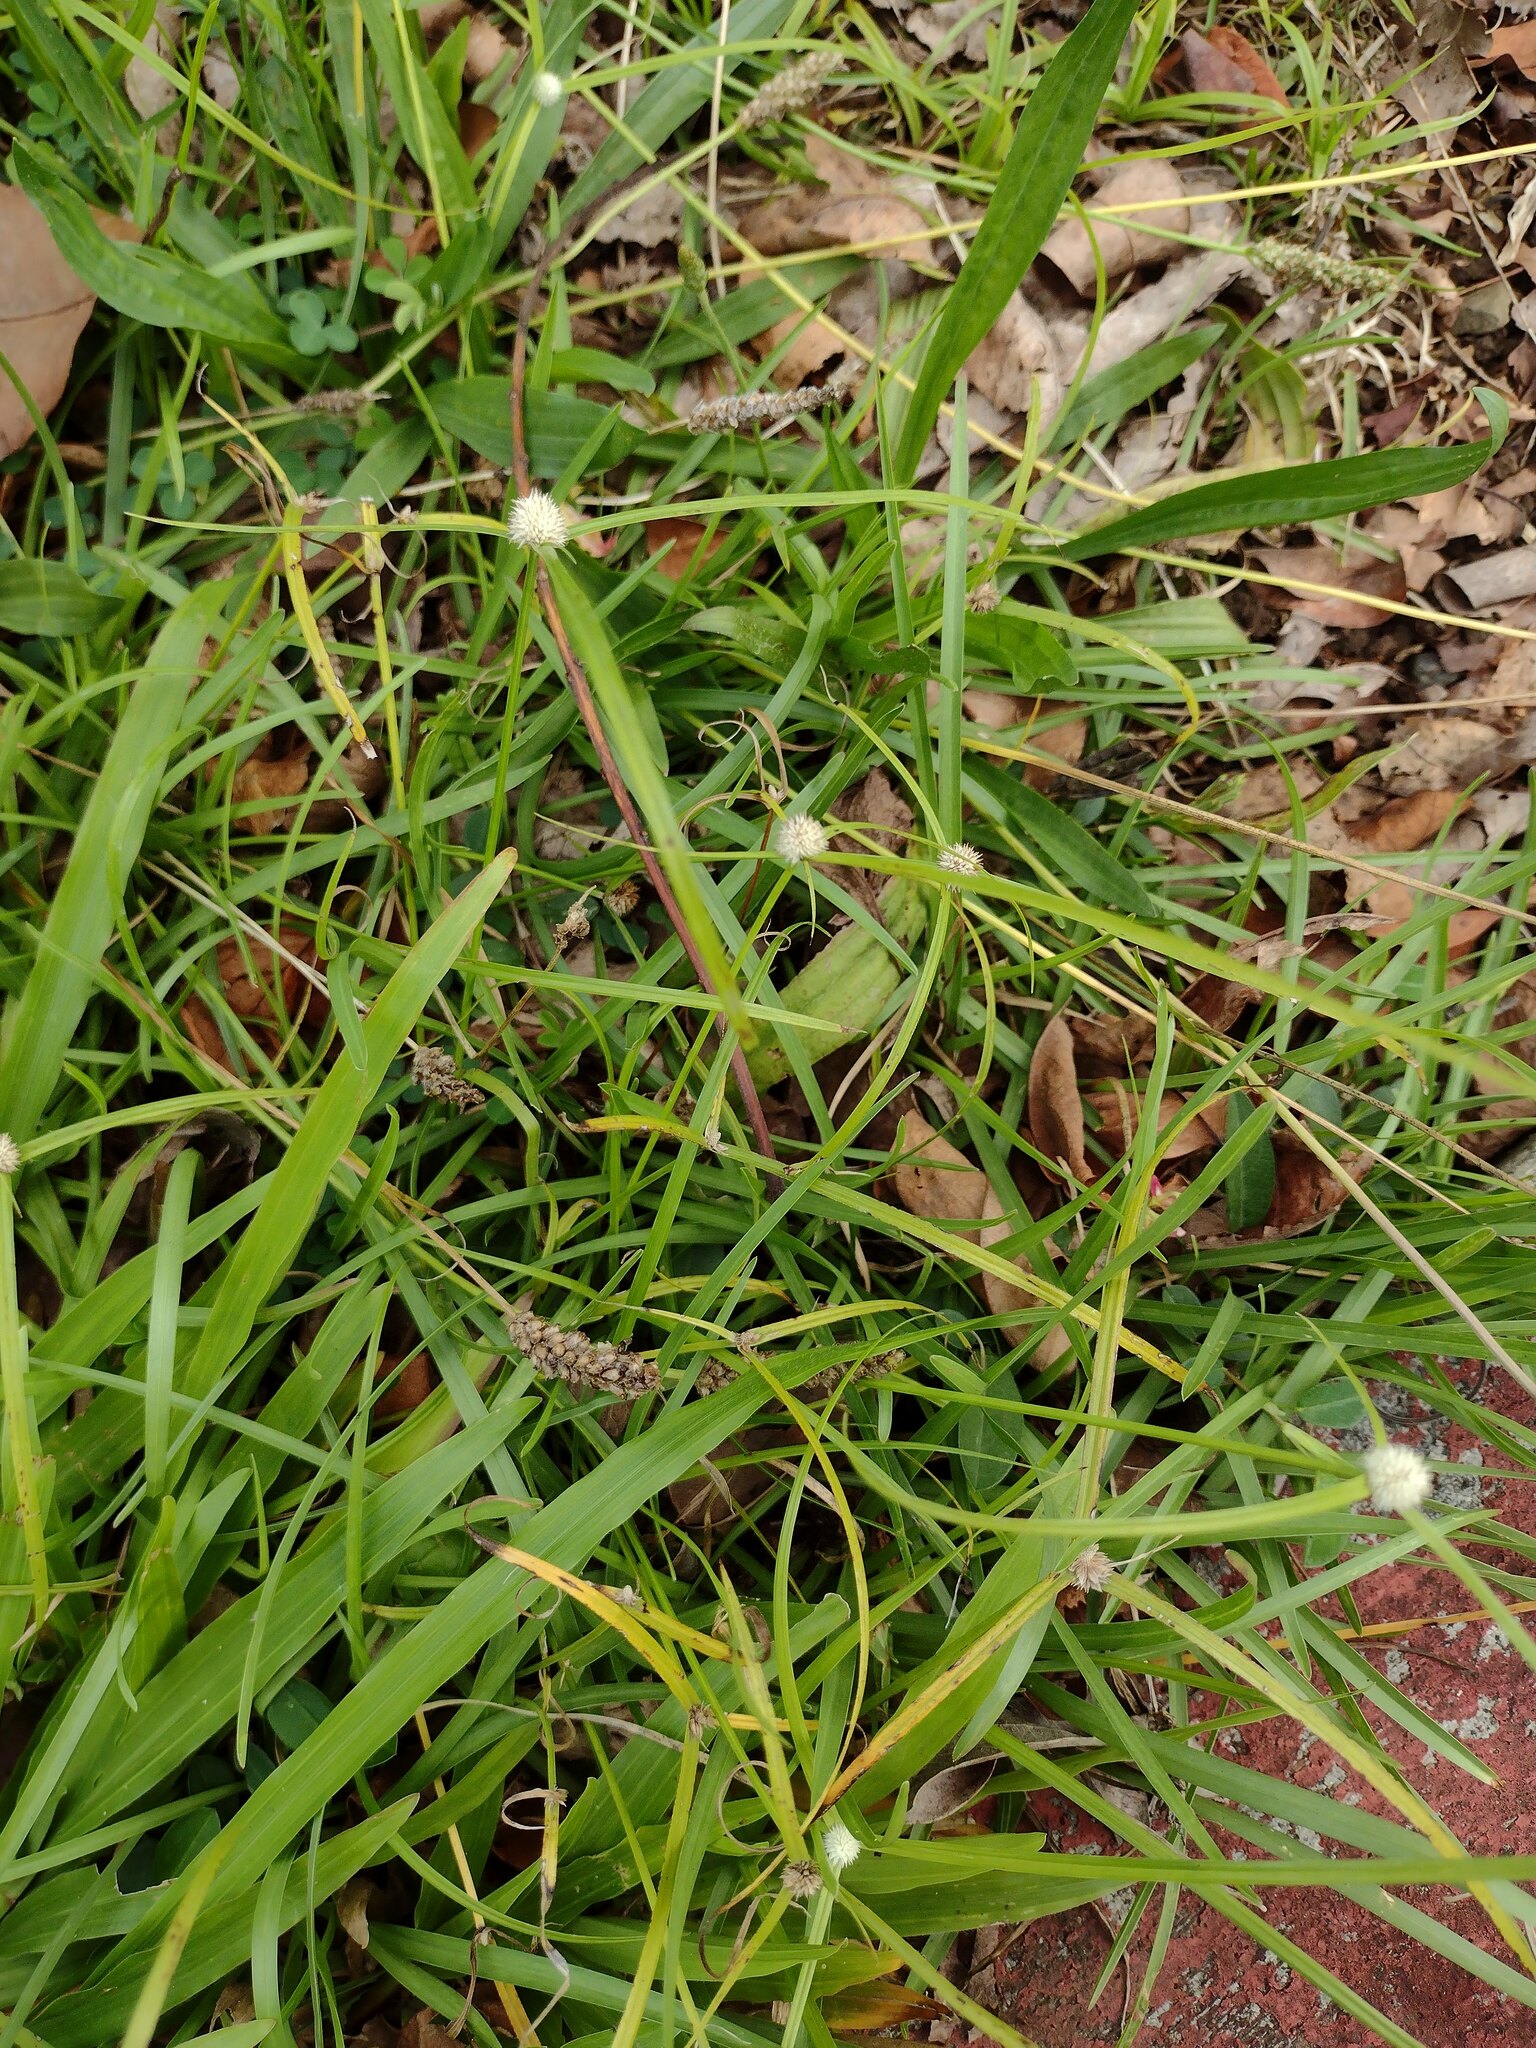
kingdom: Plantae
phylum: Tracheophyta
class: Liliopsida
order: Poales
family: Cyperaceae
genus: Cyperus
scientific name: Cyperus mindorensis
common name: Flatsedge
